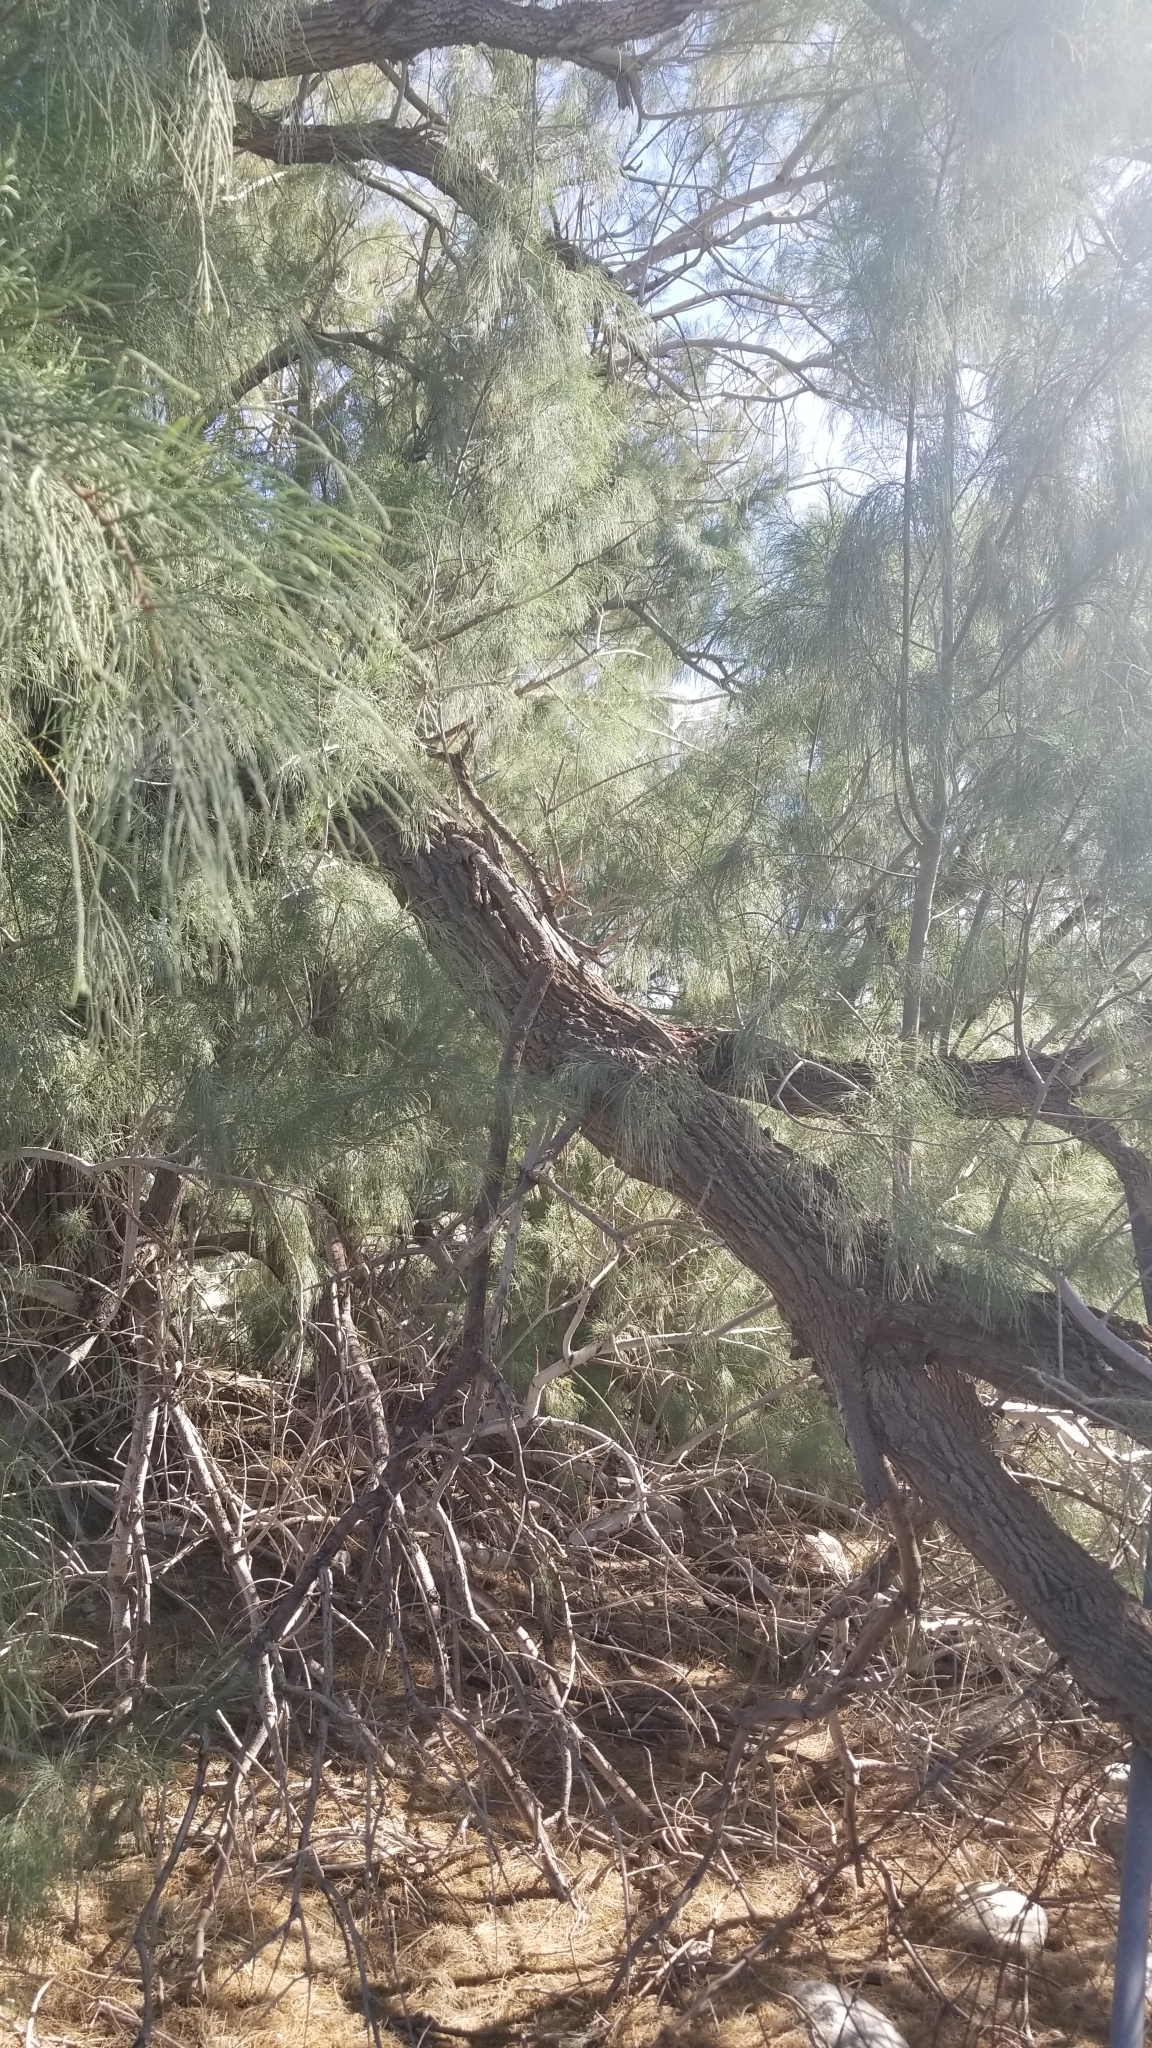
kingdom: Plantae
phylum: Tracheophyta
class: Magnoliopsida
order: Caryophyllales
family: Tamaricaceae
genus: Tamarix
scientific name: Tamarix aphylla
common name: Athel tamarisk
